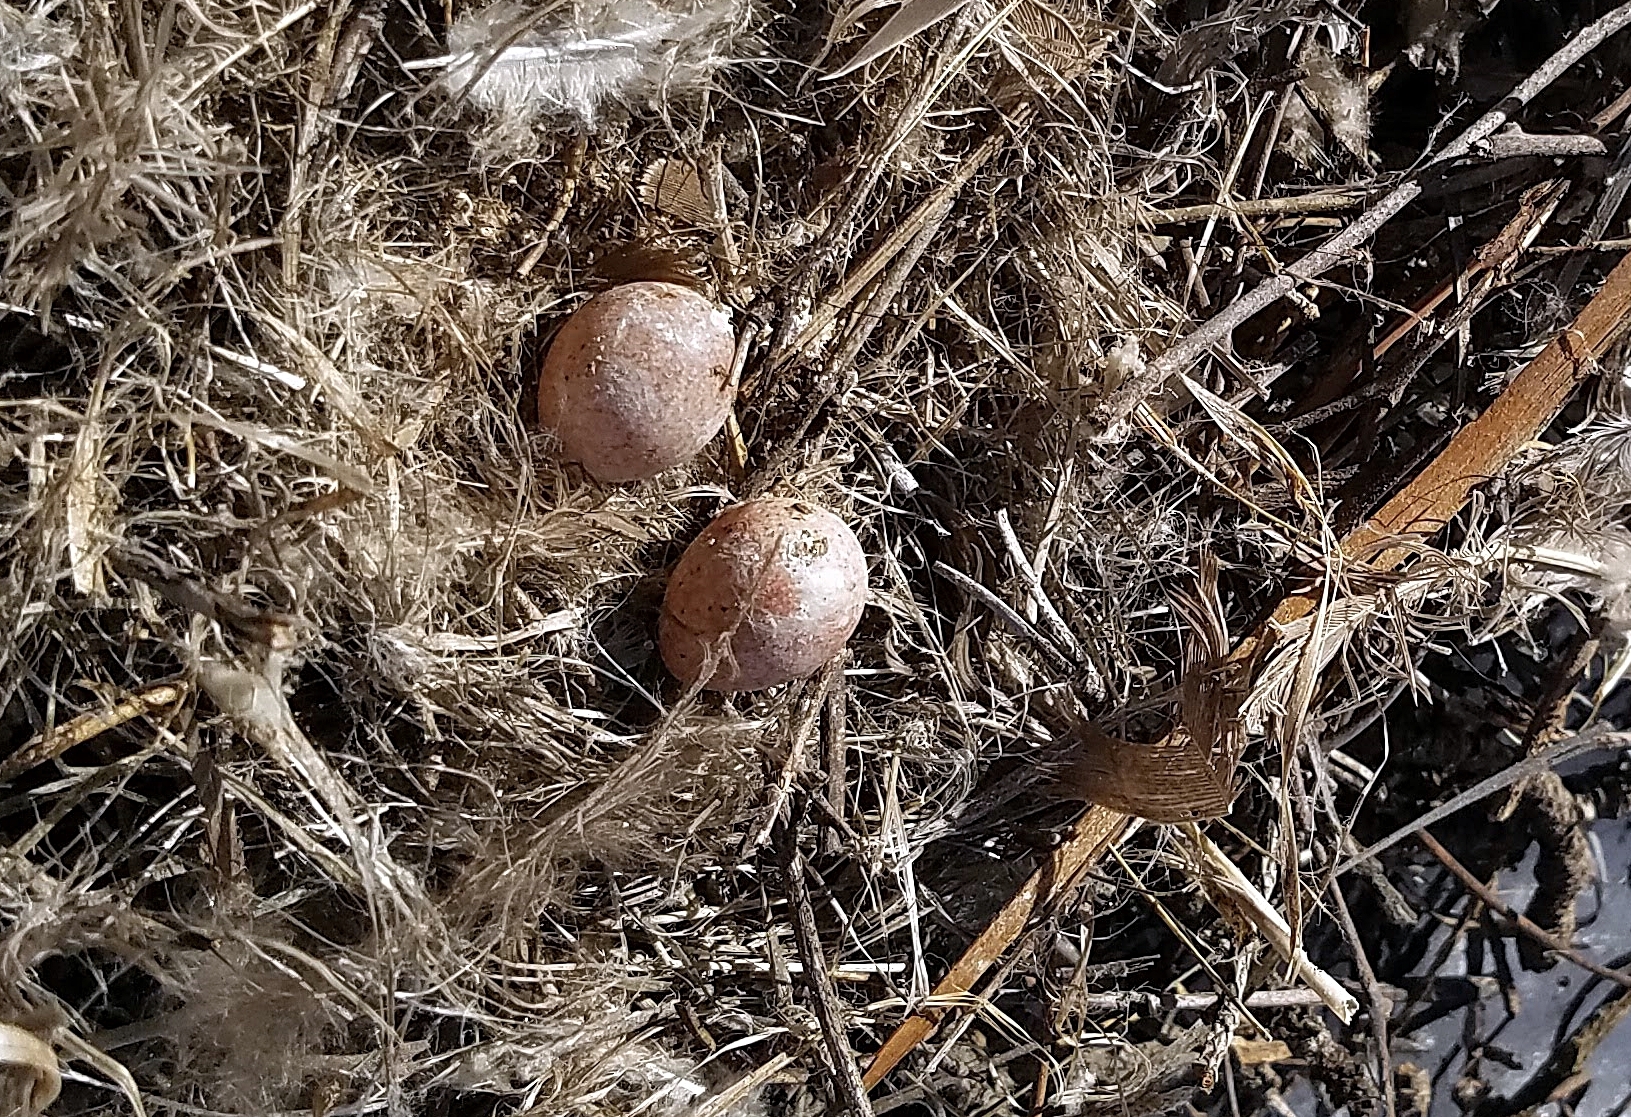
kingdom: Animalia
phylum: Chordata
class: Aves
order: Passeriformes
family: Troglodytidae
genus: Troglodytes
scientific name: Troglodytes aedon
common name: House wren
